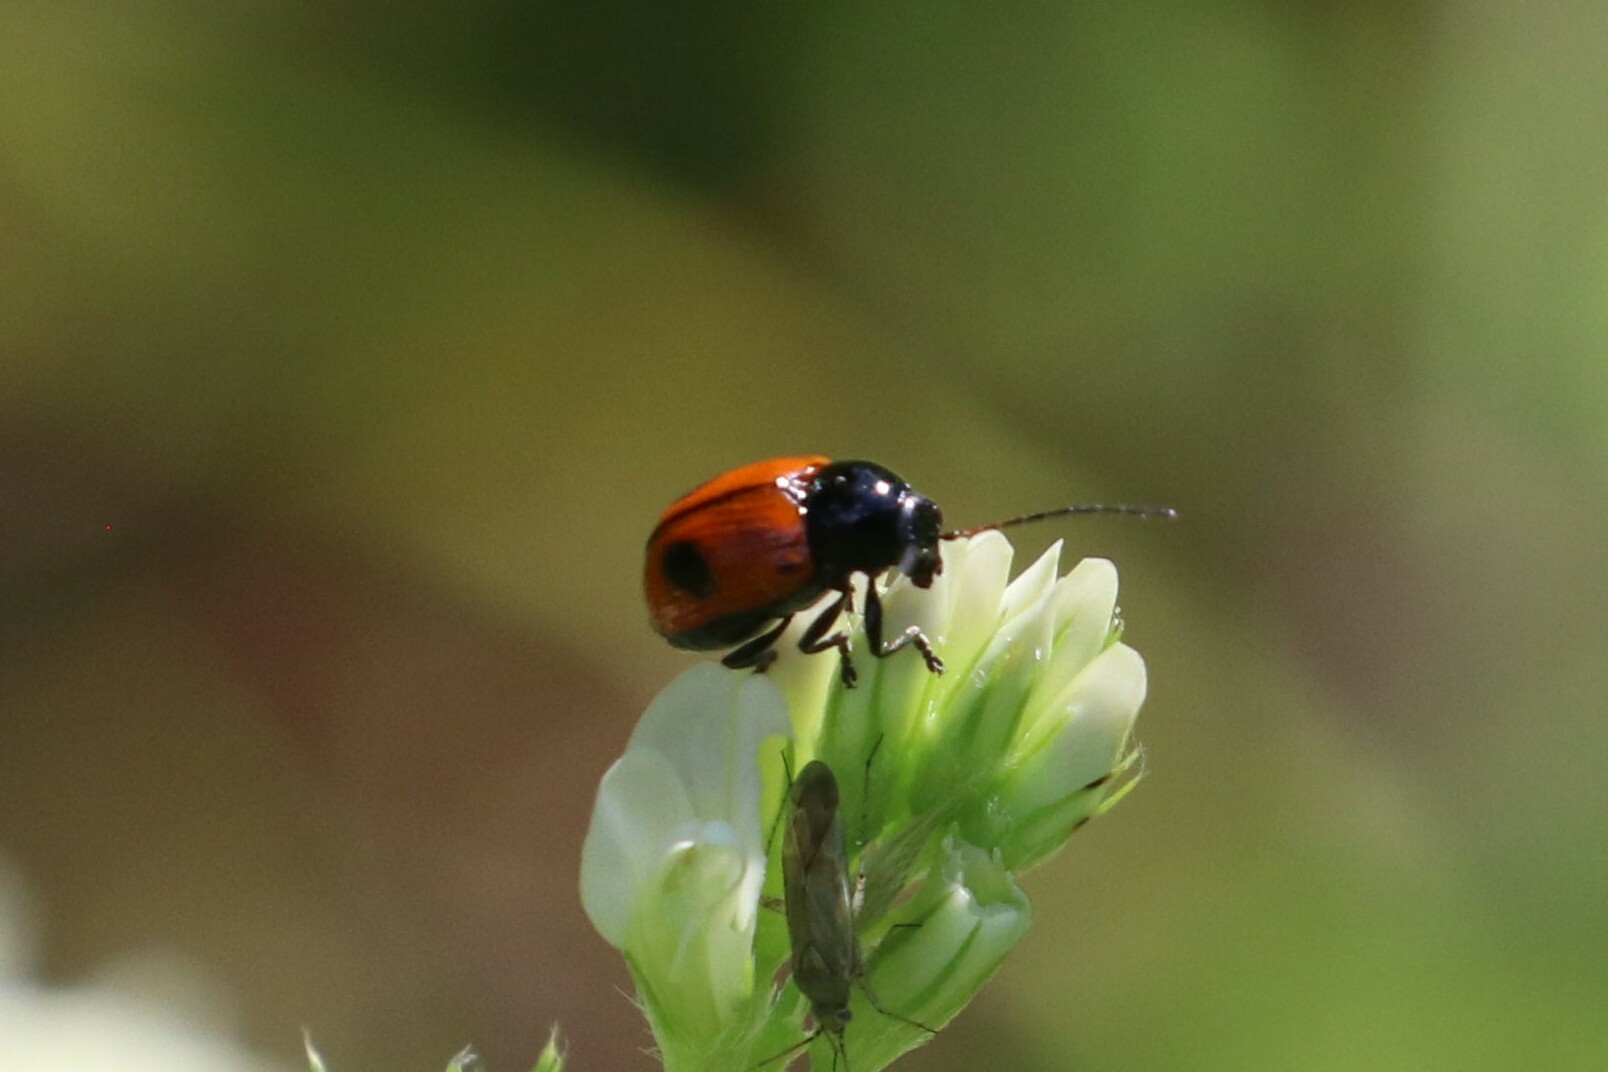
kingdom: Animalia
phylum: Arthropoda
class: Insecta
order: Coleoptera
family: Chrysomelidae
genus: Chiridopsis
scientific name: Chiridopsis bipunctata
